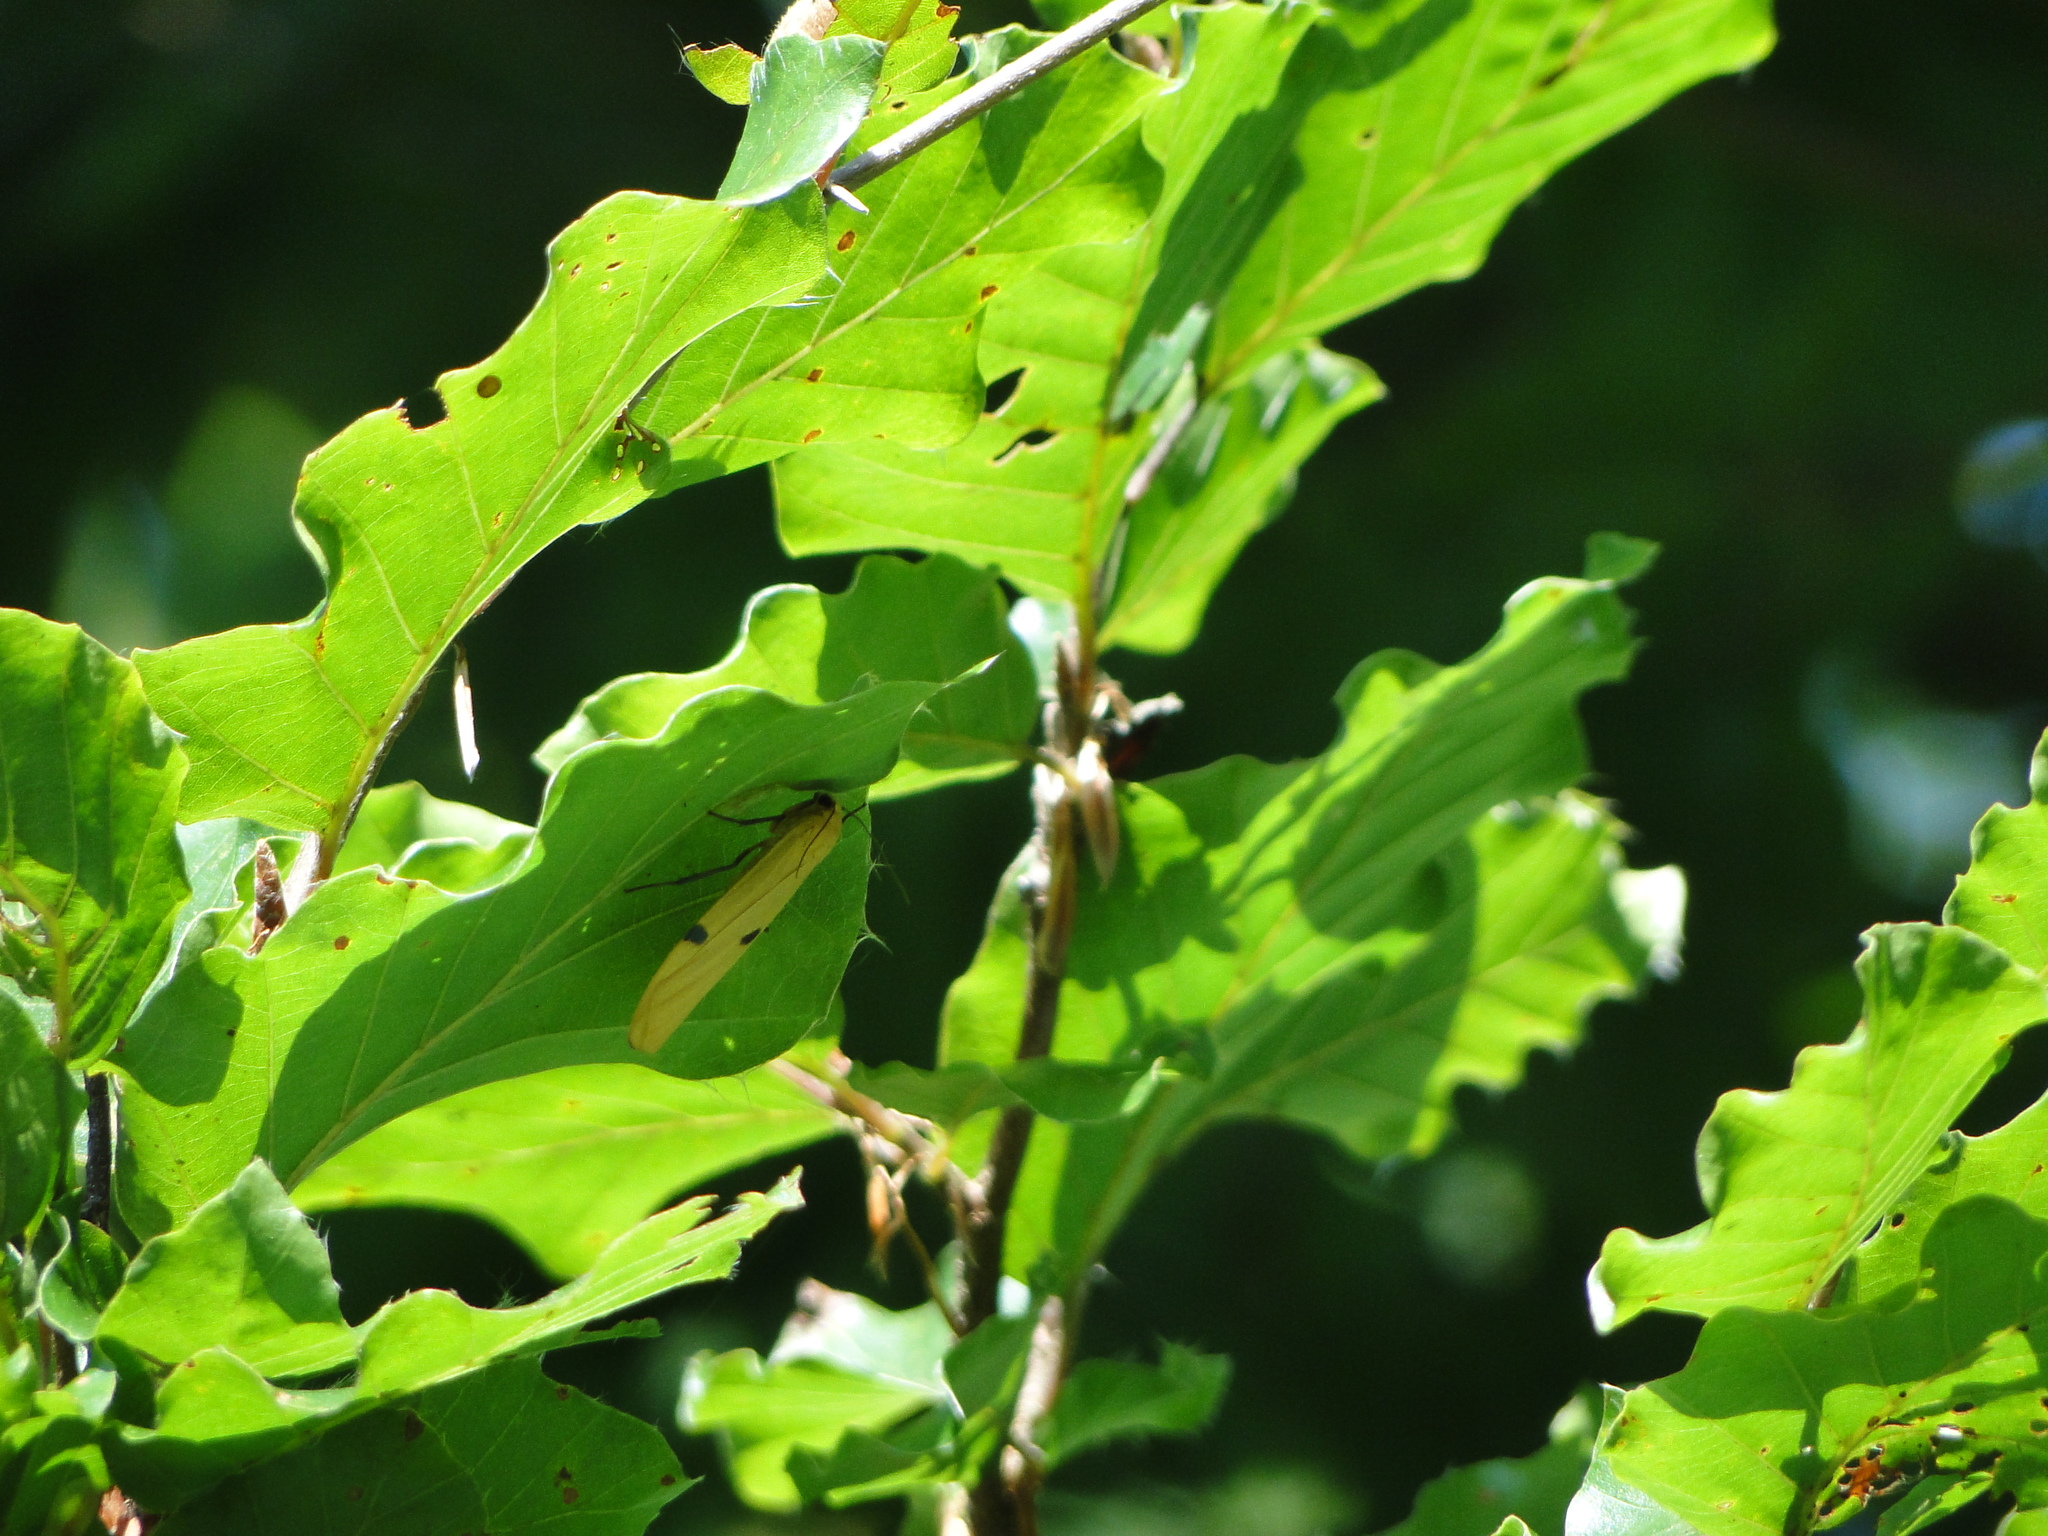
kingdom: Animalia
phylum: Arthropoda
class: Insecta
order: Lepidoptera
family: Erebidae
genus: Lithosia
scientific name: Lithosia quadra
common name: Four-spotted footman
